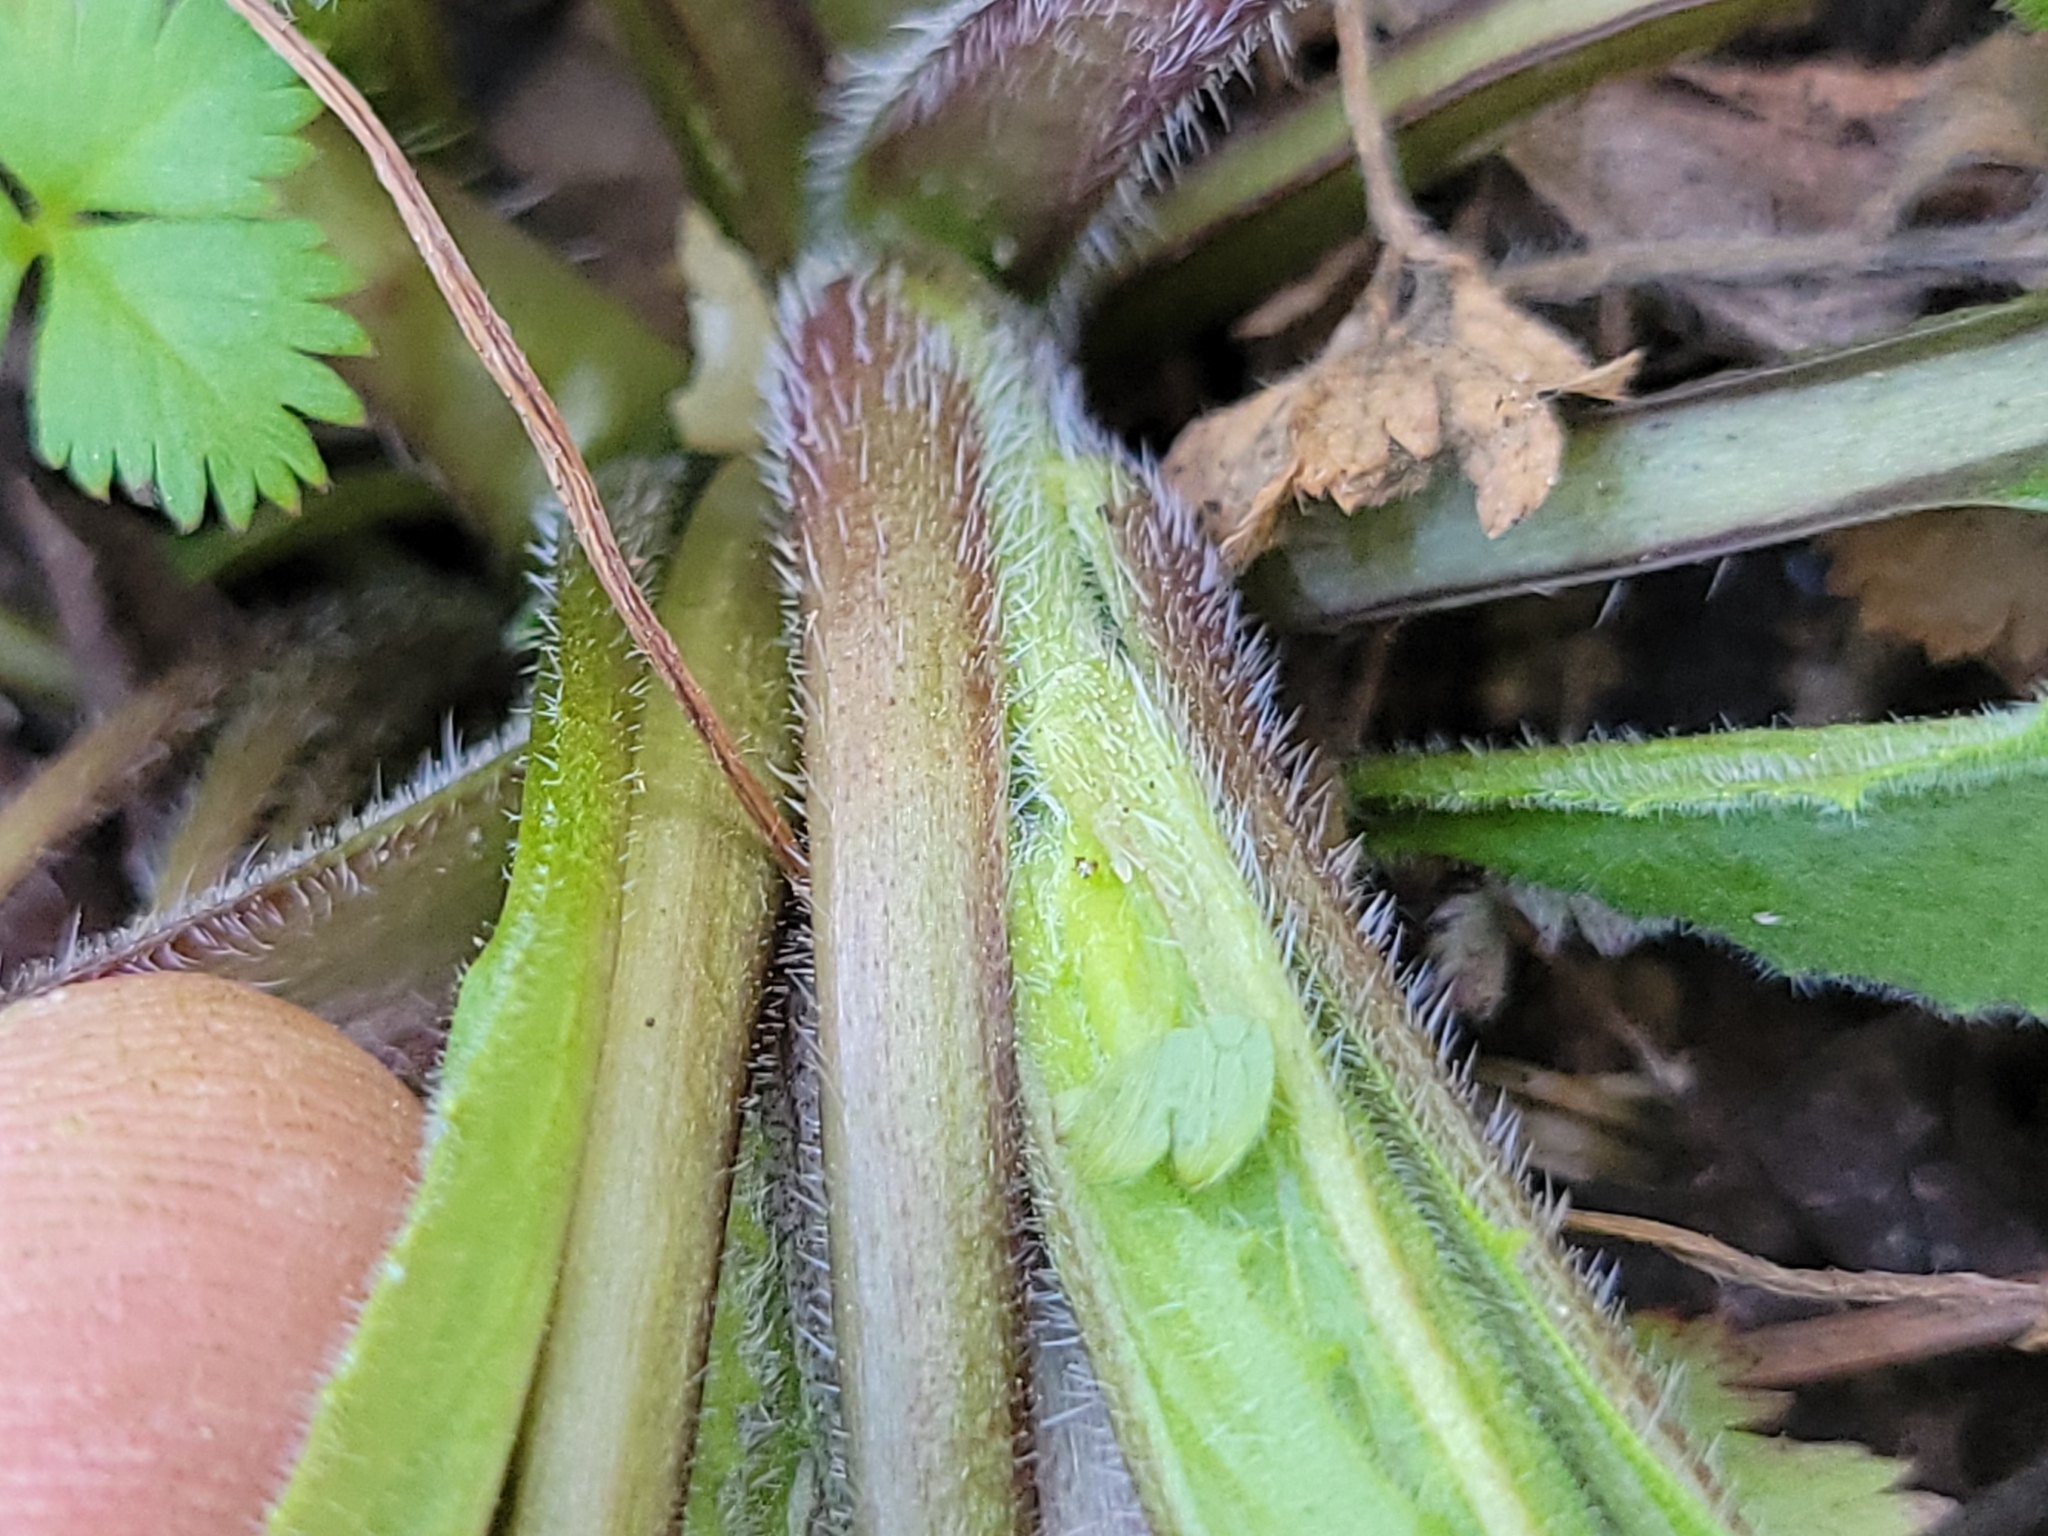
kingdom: Plantae
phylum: Tracheophyta
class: Magnoliopsida
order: Brassicales
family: Brassicaceae
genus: Hesperis
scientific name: Hesperis matronalis
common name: Dame's-violet
